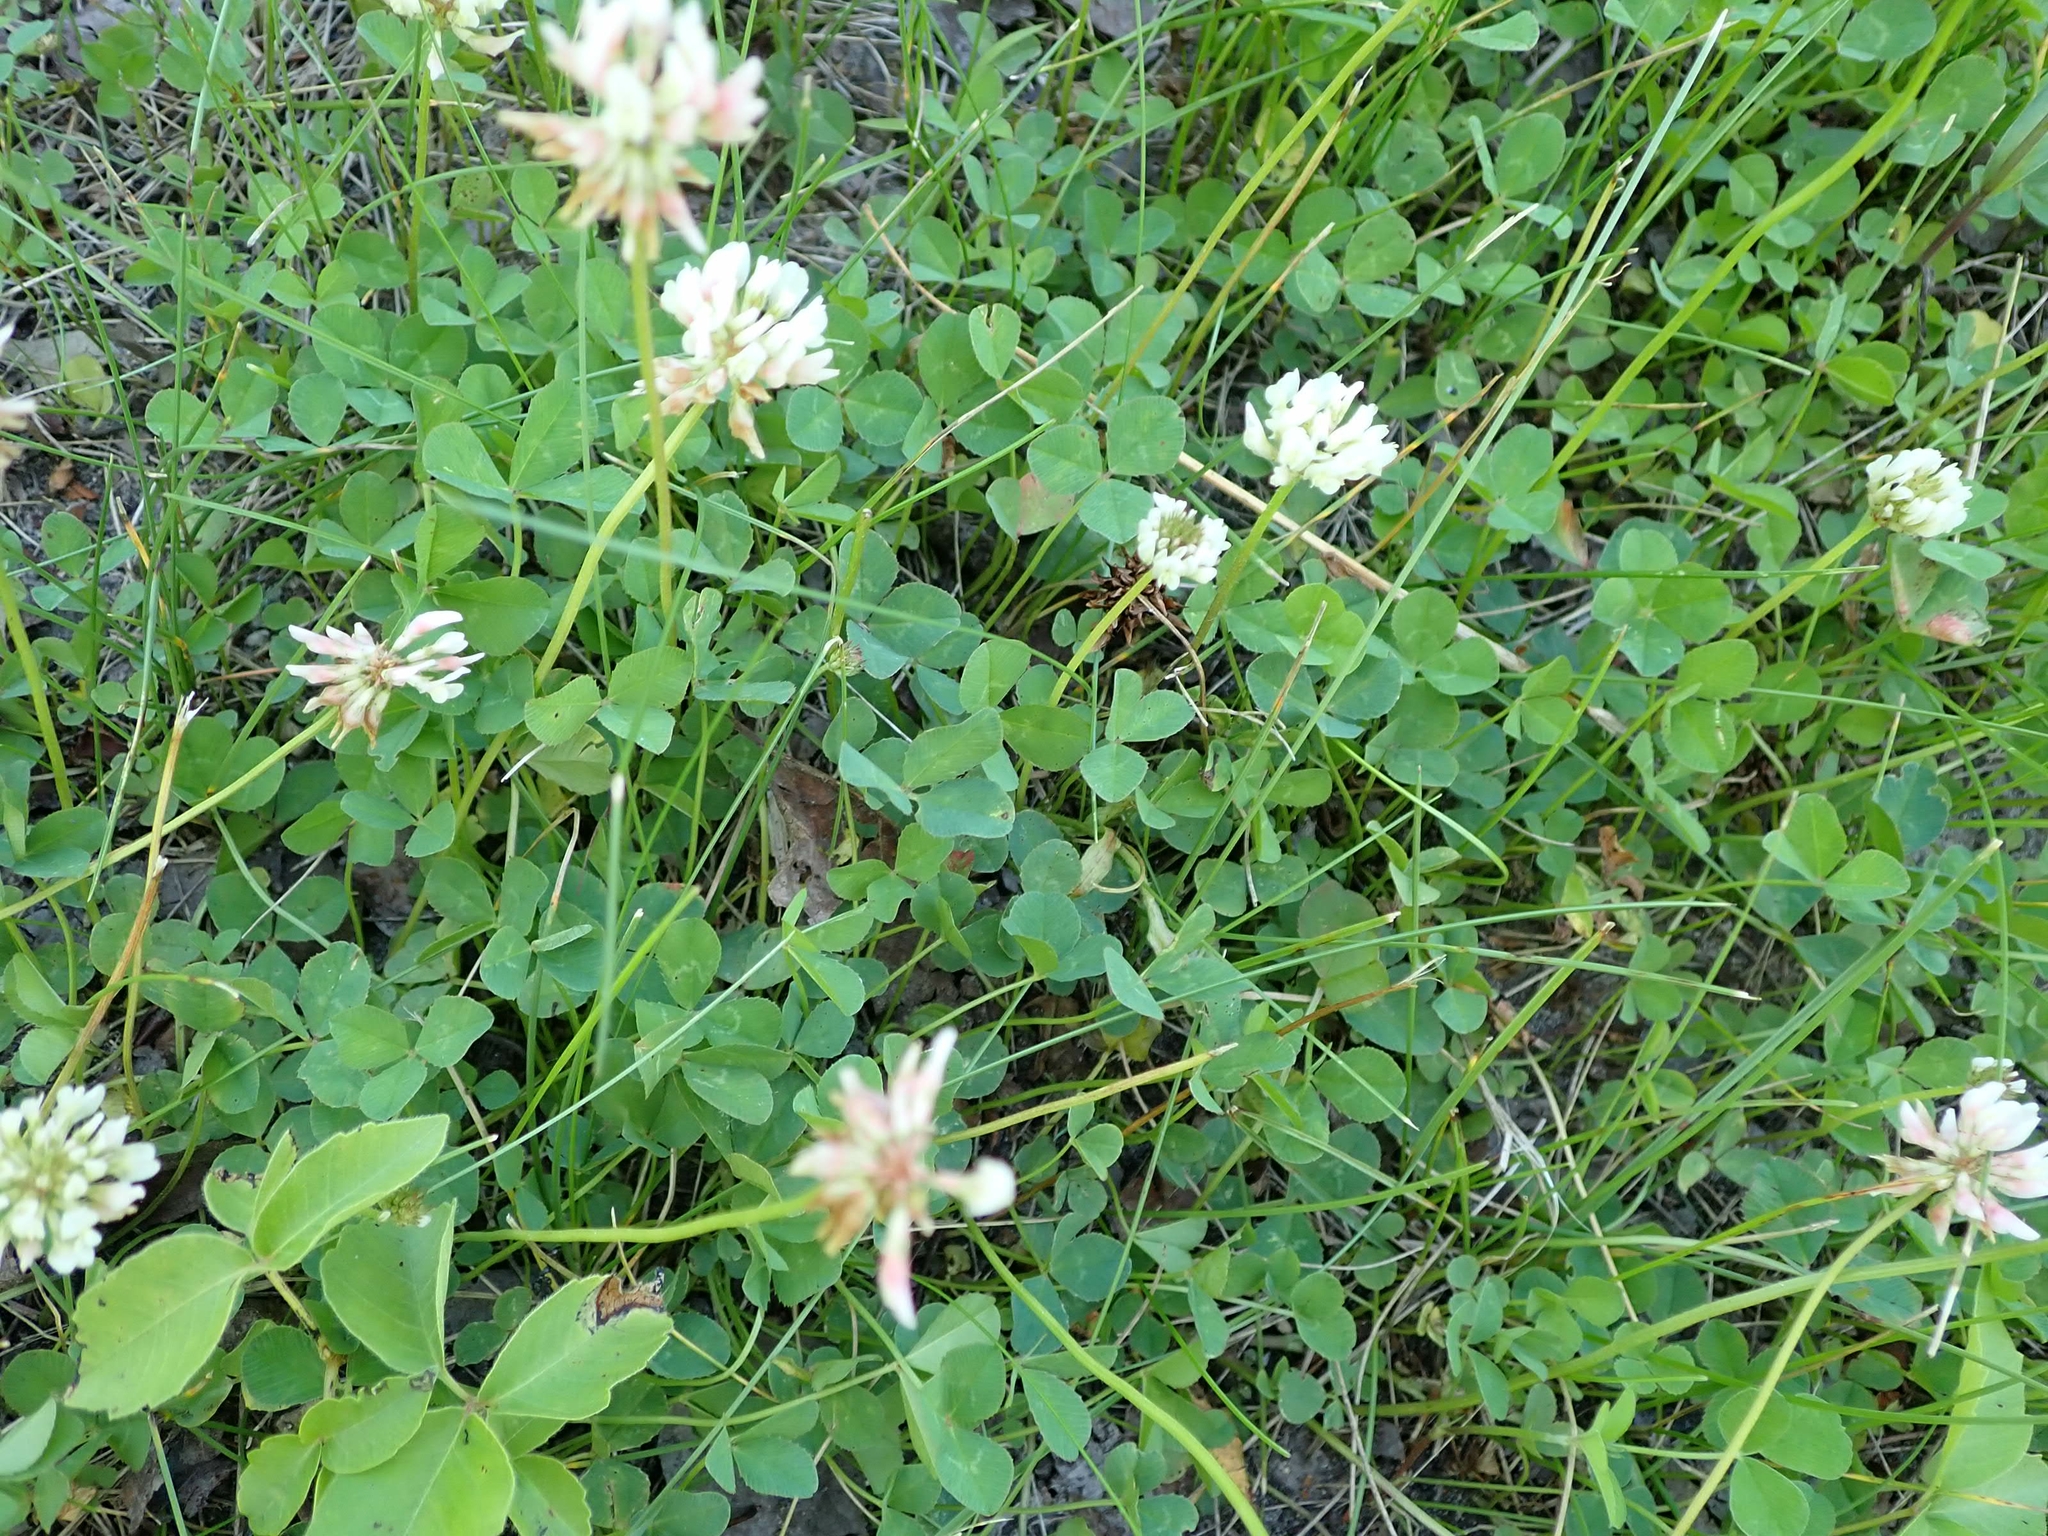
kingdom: Plantae
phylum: Tracheophyta
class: Magnoliopsida
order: Fabales
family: Fabaceae
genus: Trifolium
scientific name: Trifolium repens
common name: White clover
